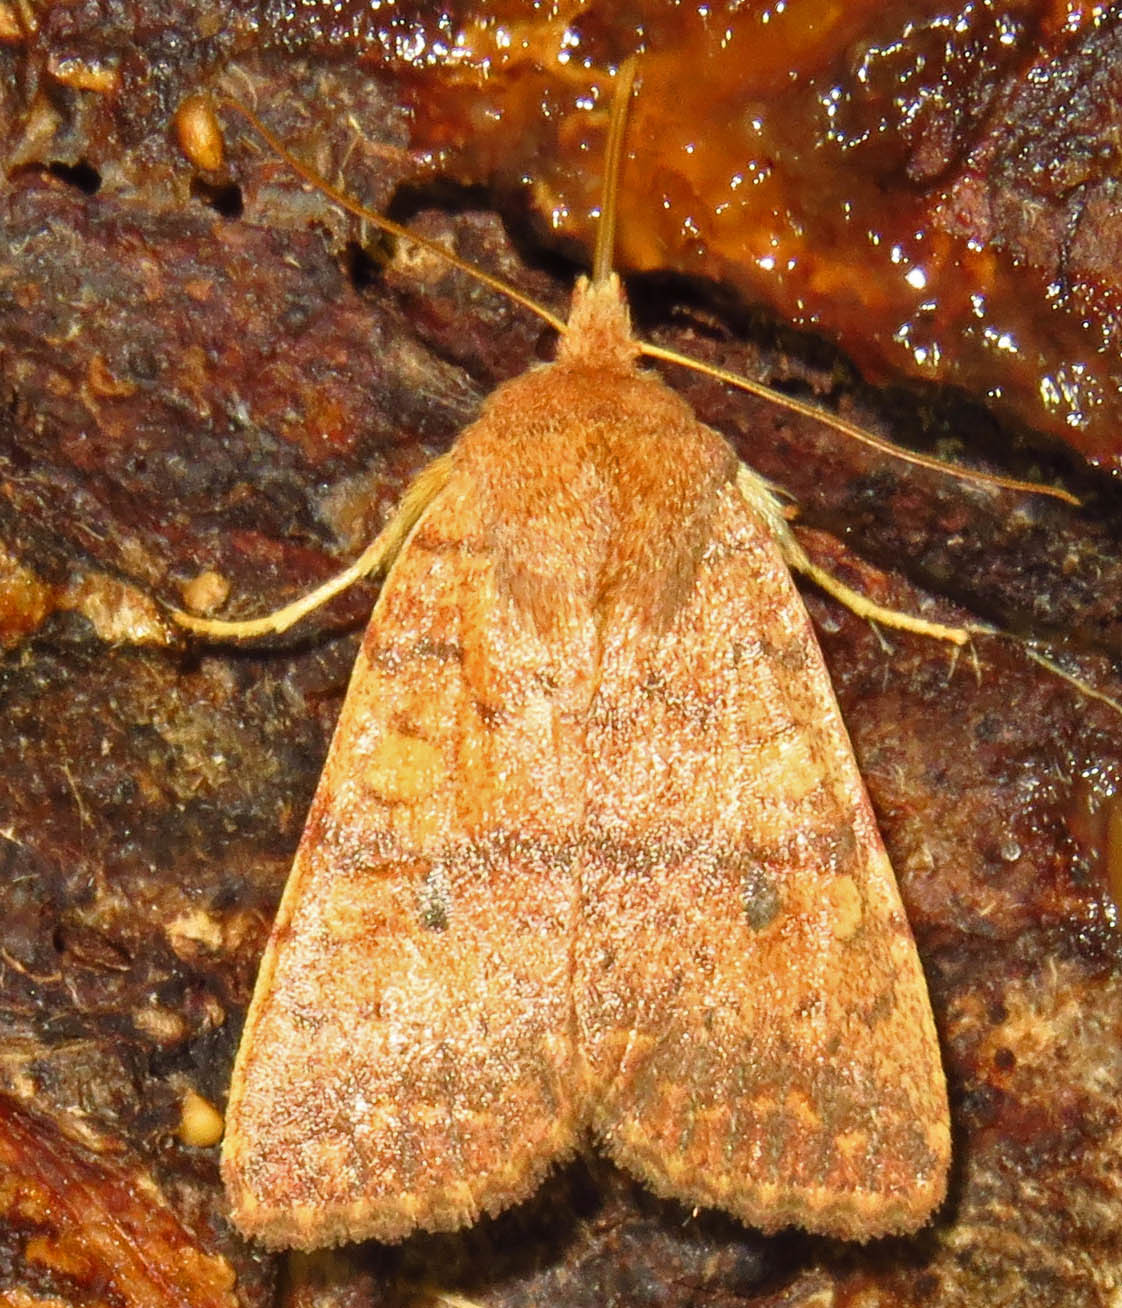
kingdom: Animalia
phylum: Arthropoda
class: Insecta
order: Lepidoptera
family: Noctuidae
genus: Agrochola
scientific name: Agrochola bicolorago
